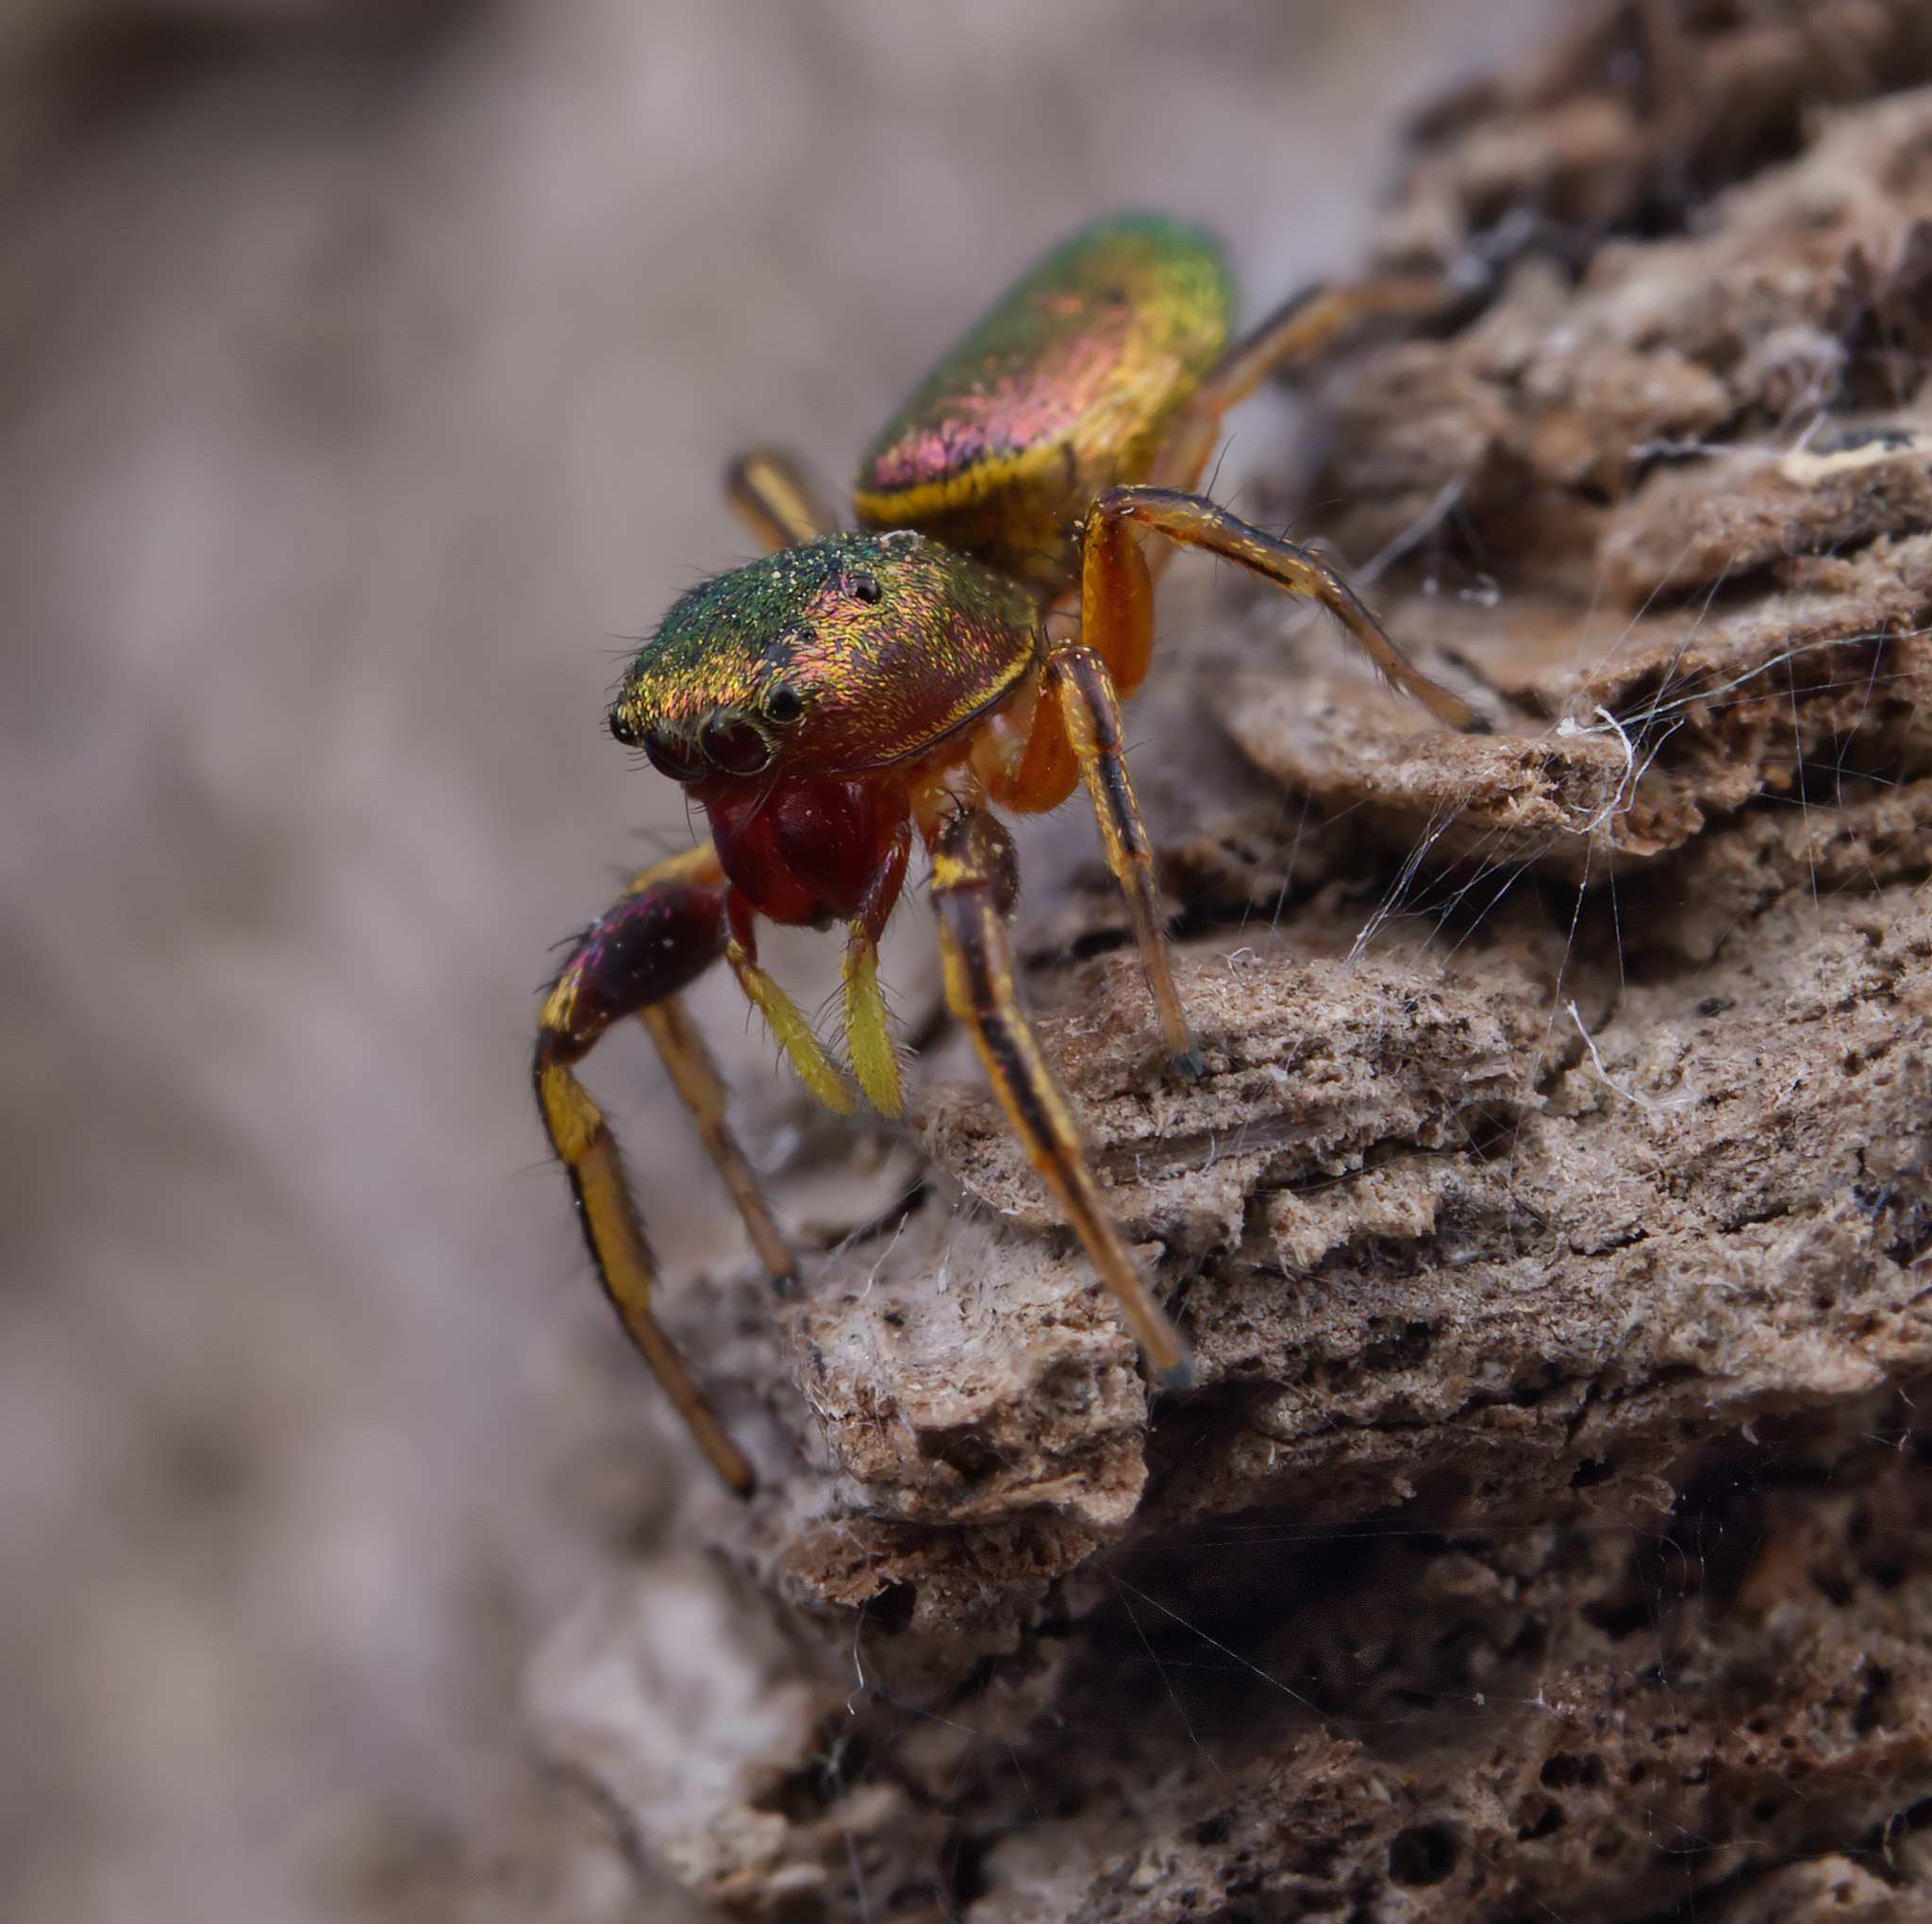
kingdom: Animalia
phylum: Arthropoda
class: Arachnida
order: Araneae
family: Salticidae
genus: Tutelina
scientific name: Tutelina elegans
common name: Thin-spined jumping spider
